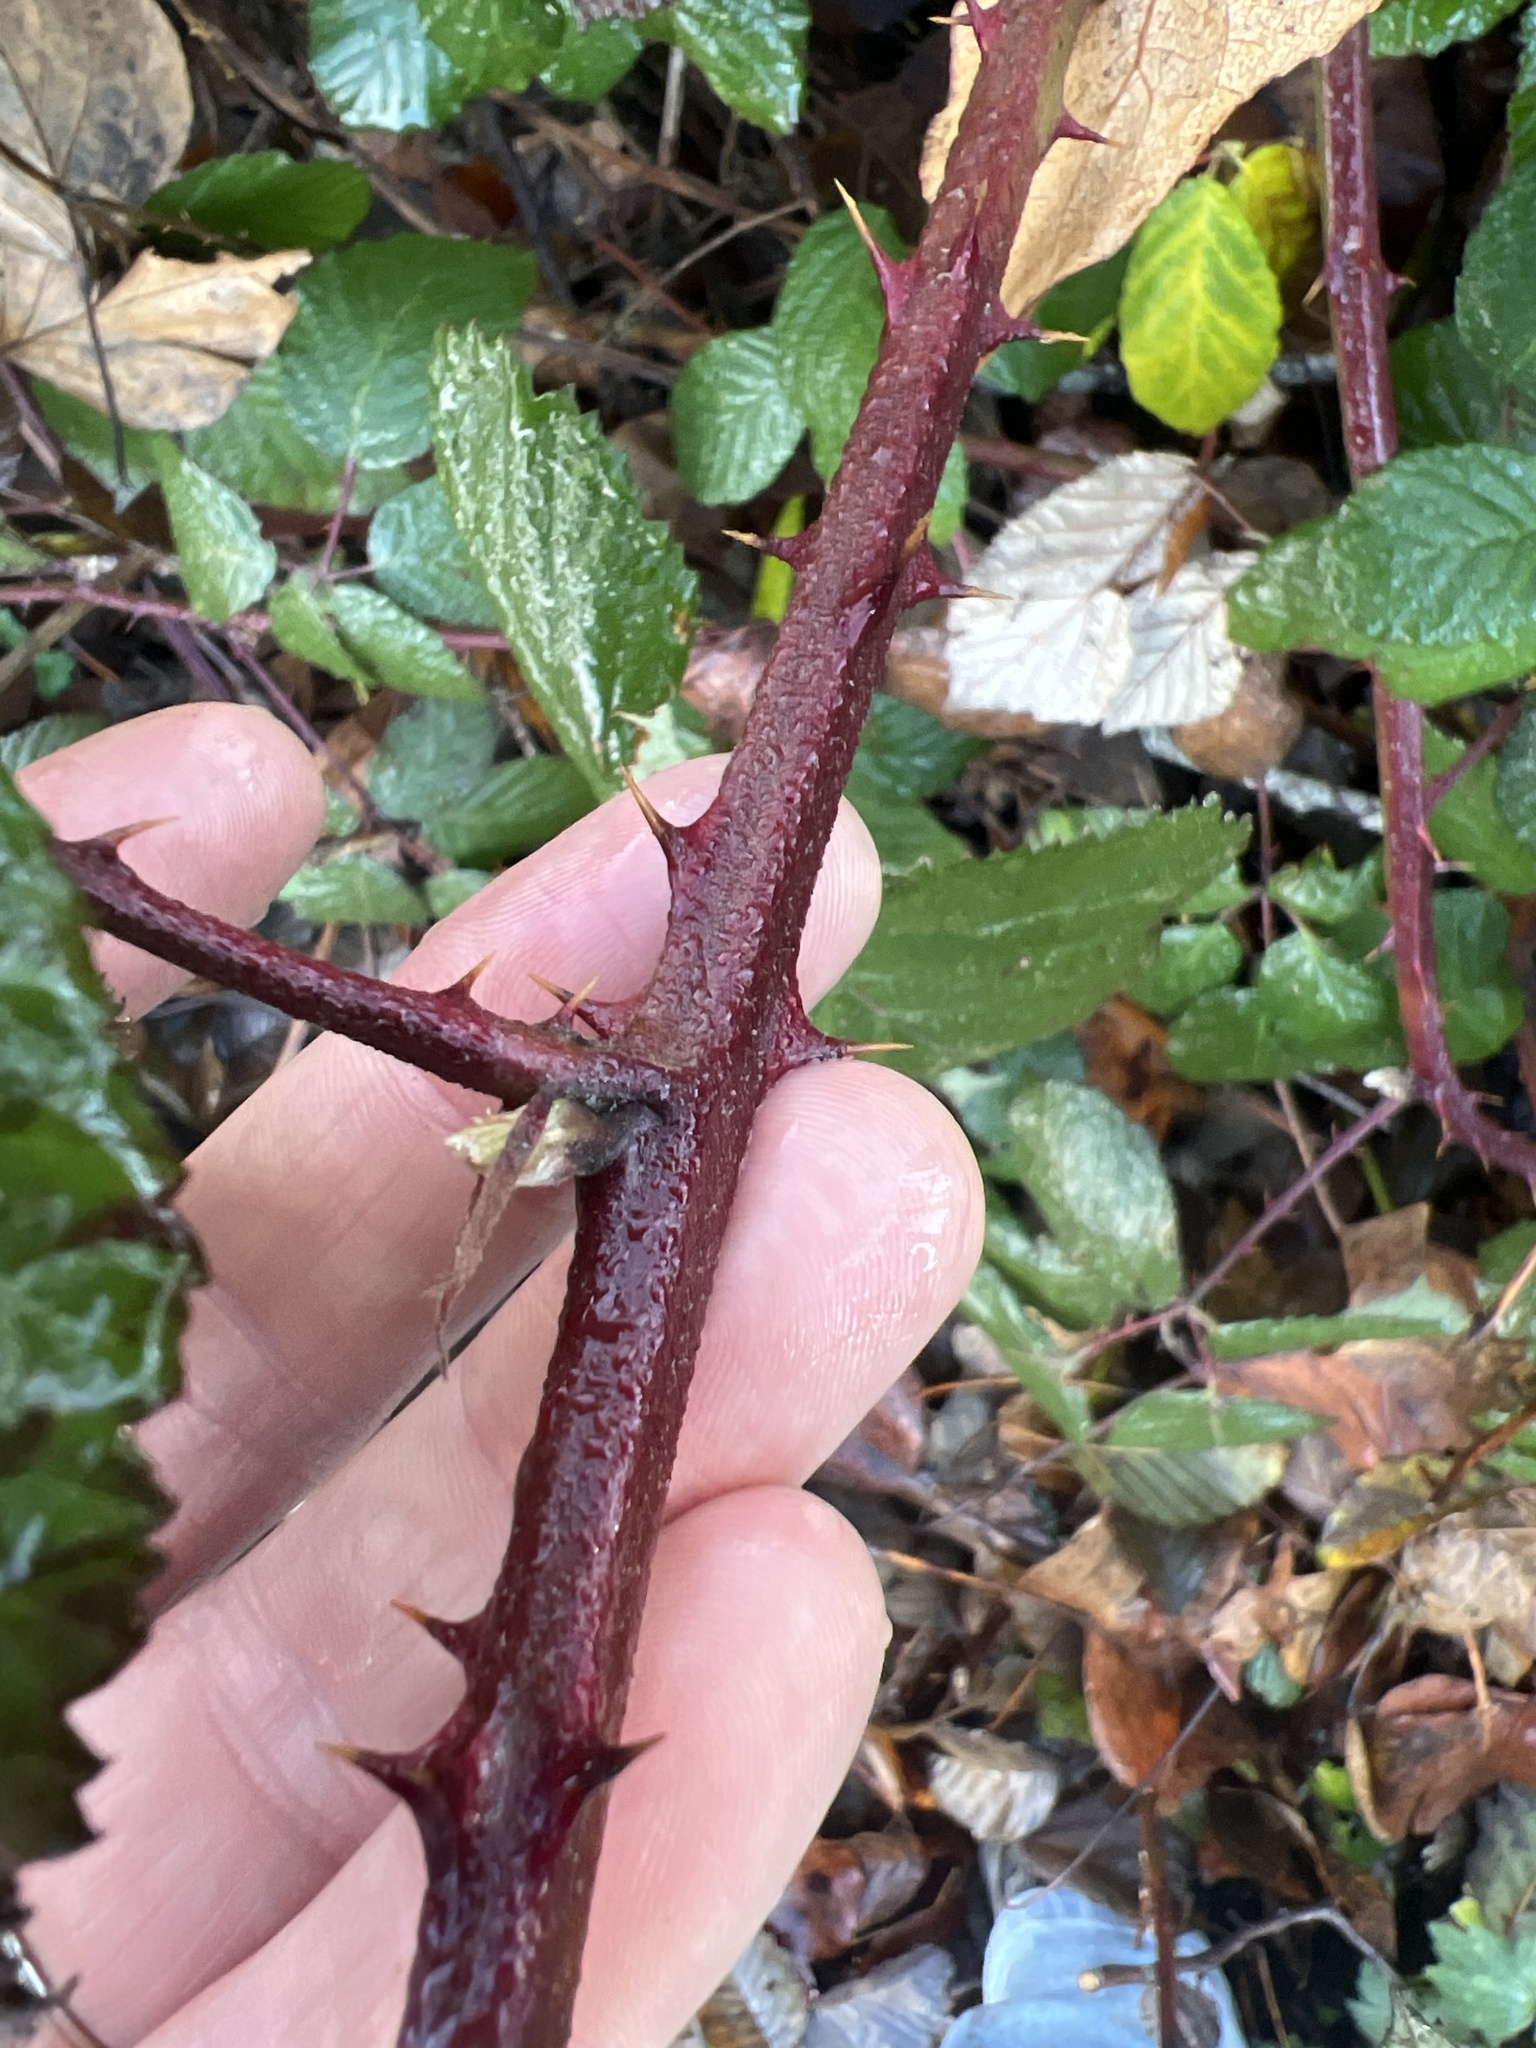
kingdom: Plantae
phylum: Tracheophyta
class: Magnoliopsida
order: Rosales
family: Rosaceae
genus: Rubus
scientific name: Rubus bifrons
